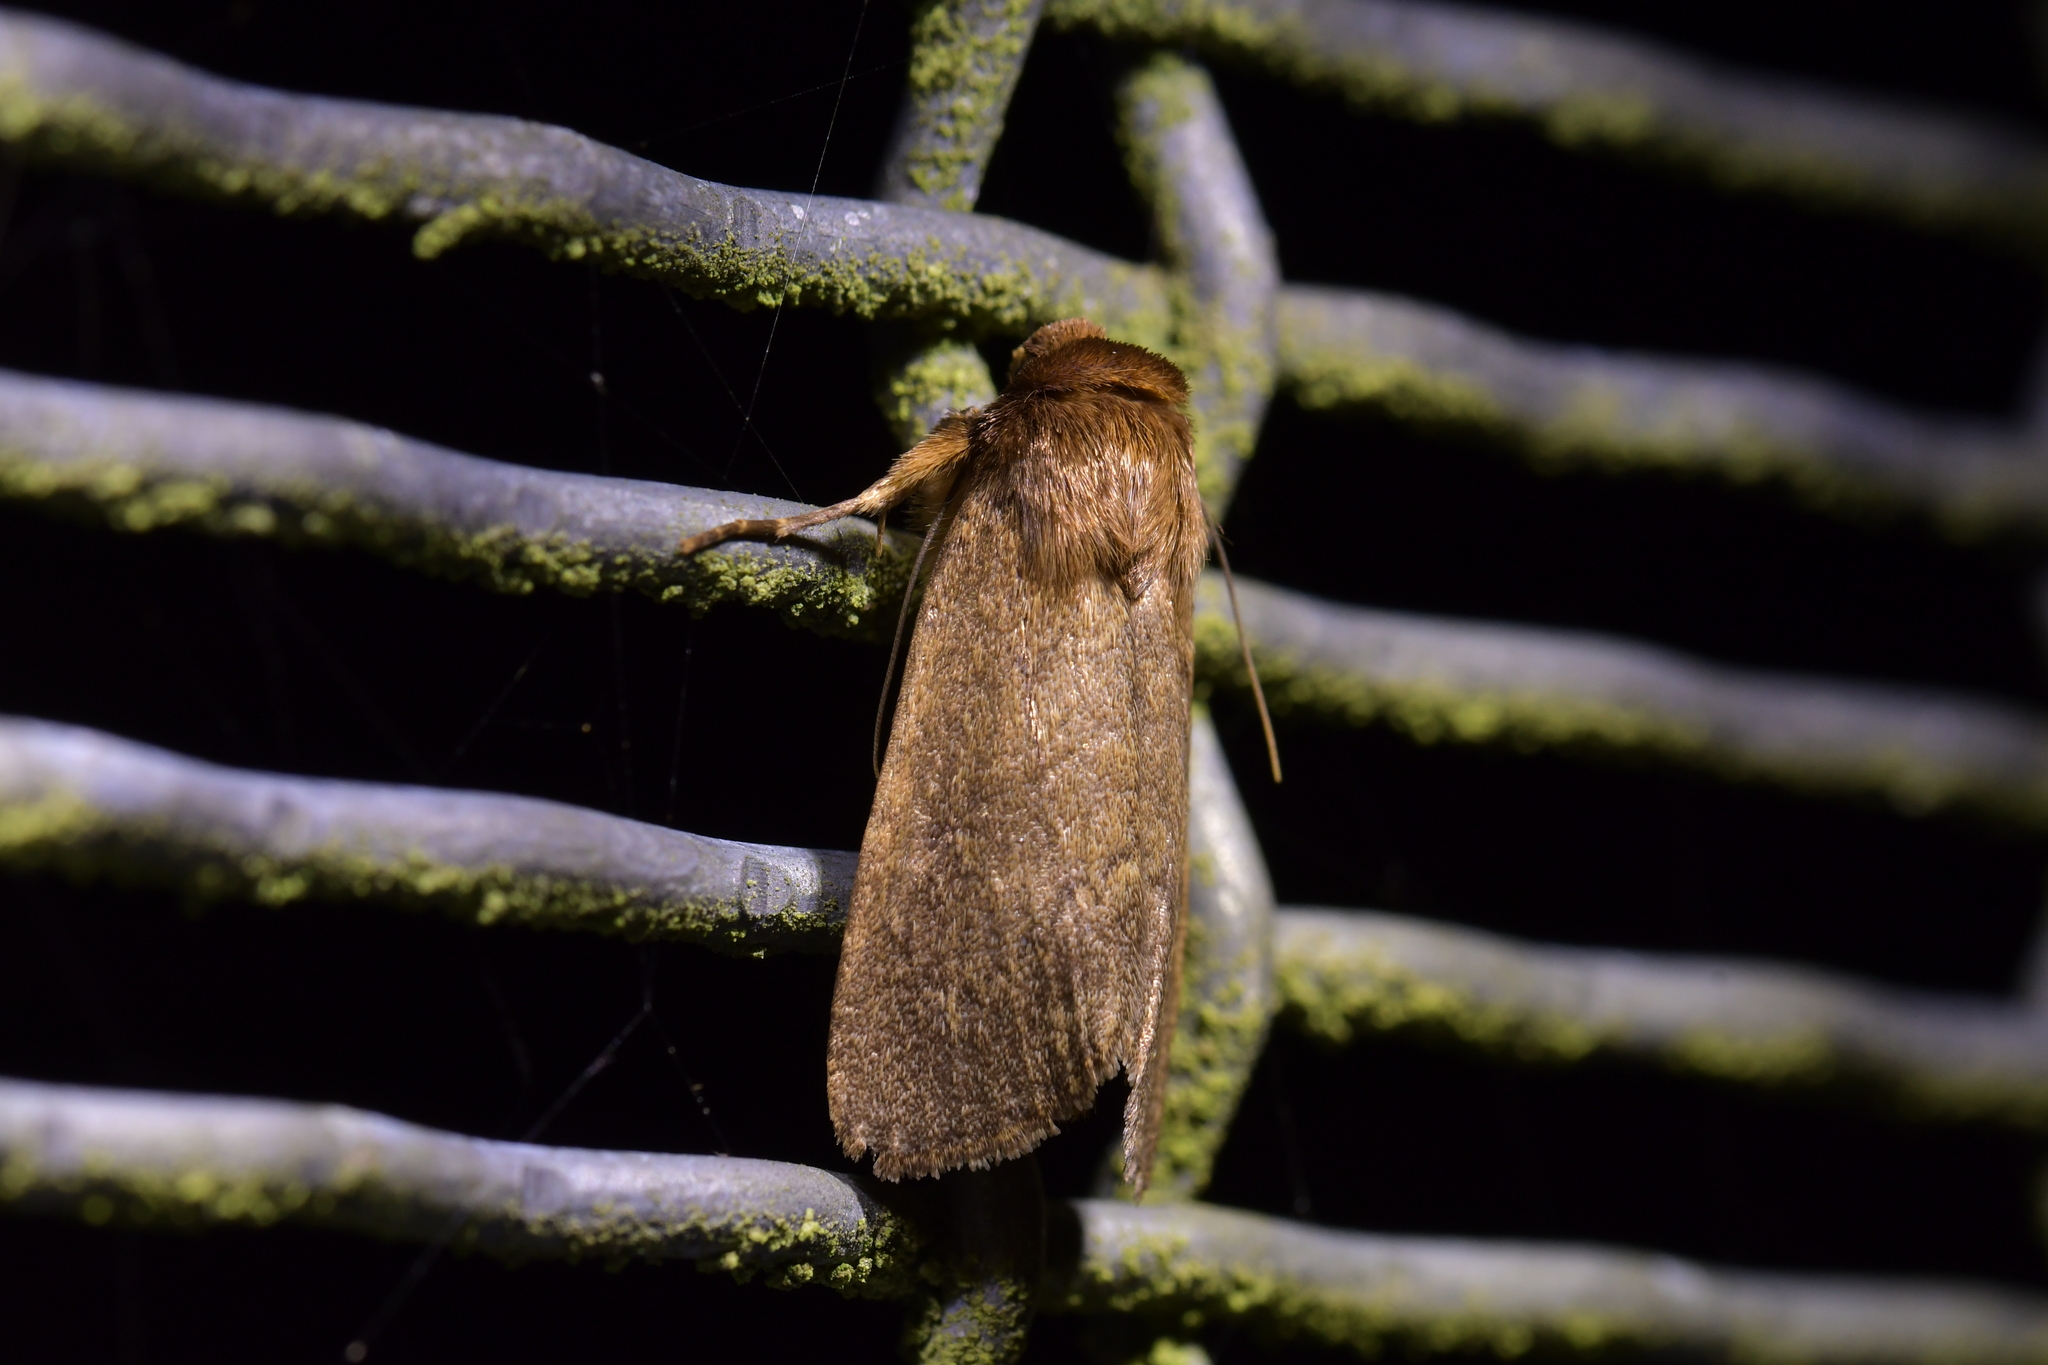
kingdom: Animalia
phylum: Arthropoda
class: Insecta
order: Lepidoptera
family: Noctuidae
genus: Bityla
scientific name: Bityla defigurata
